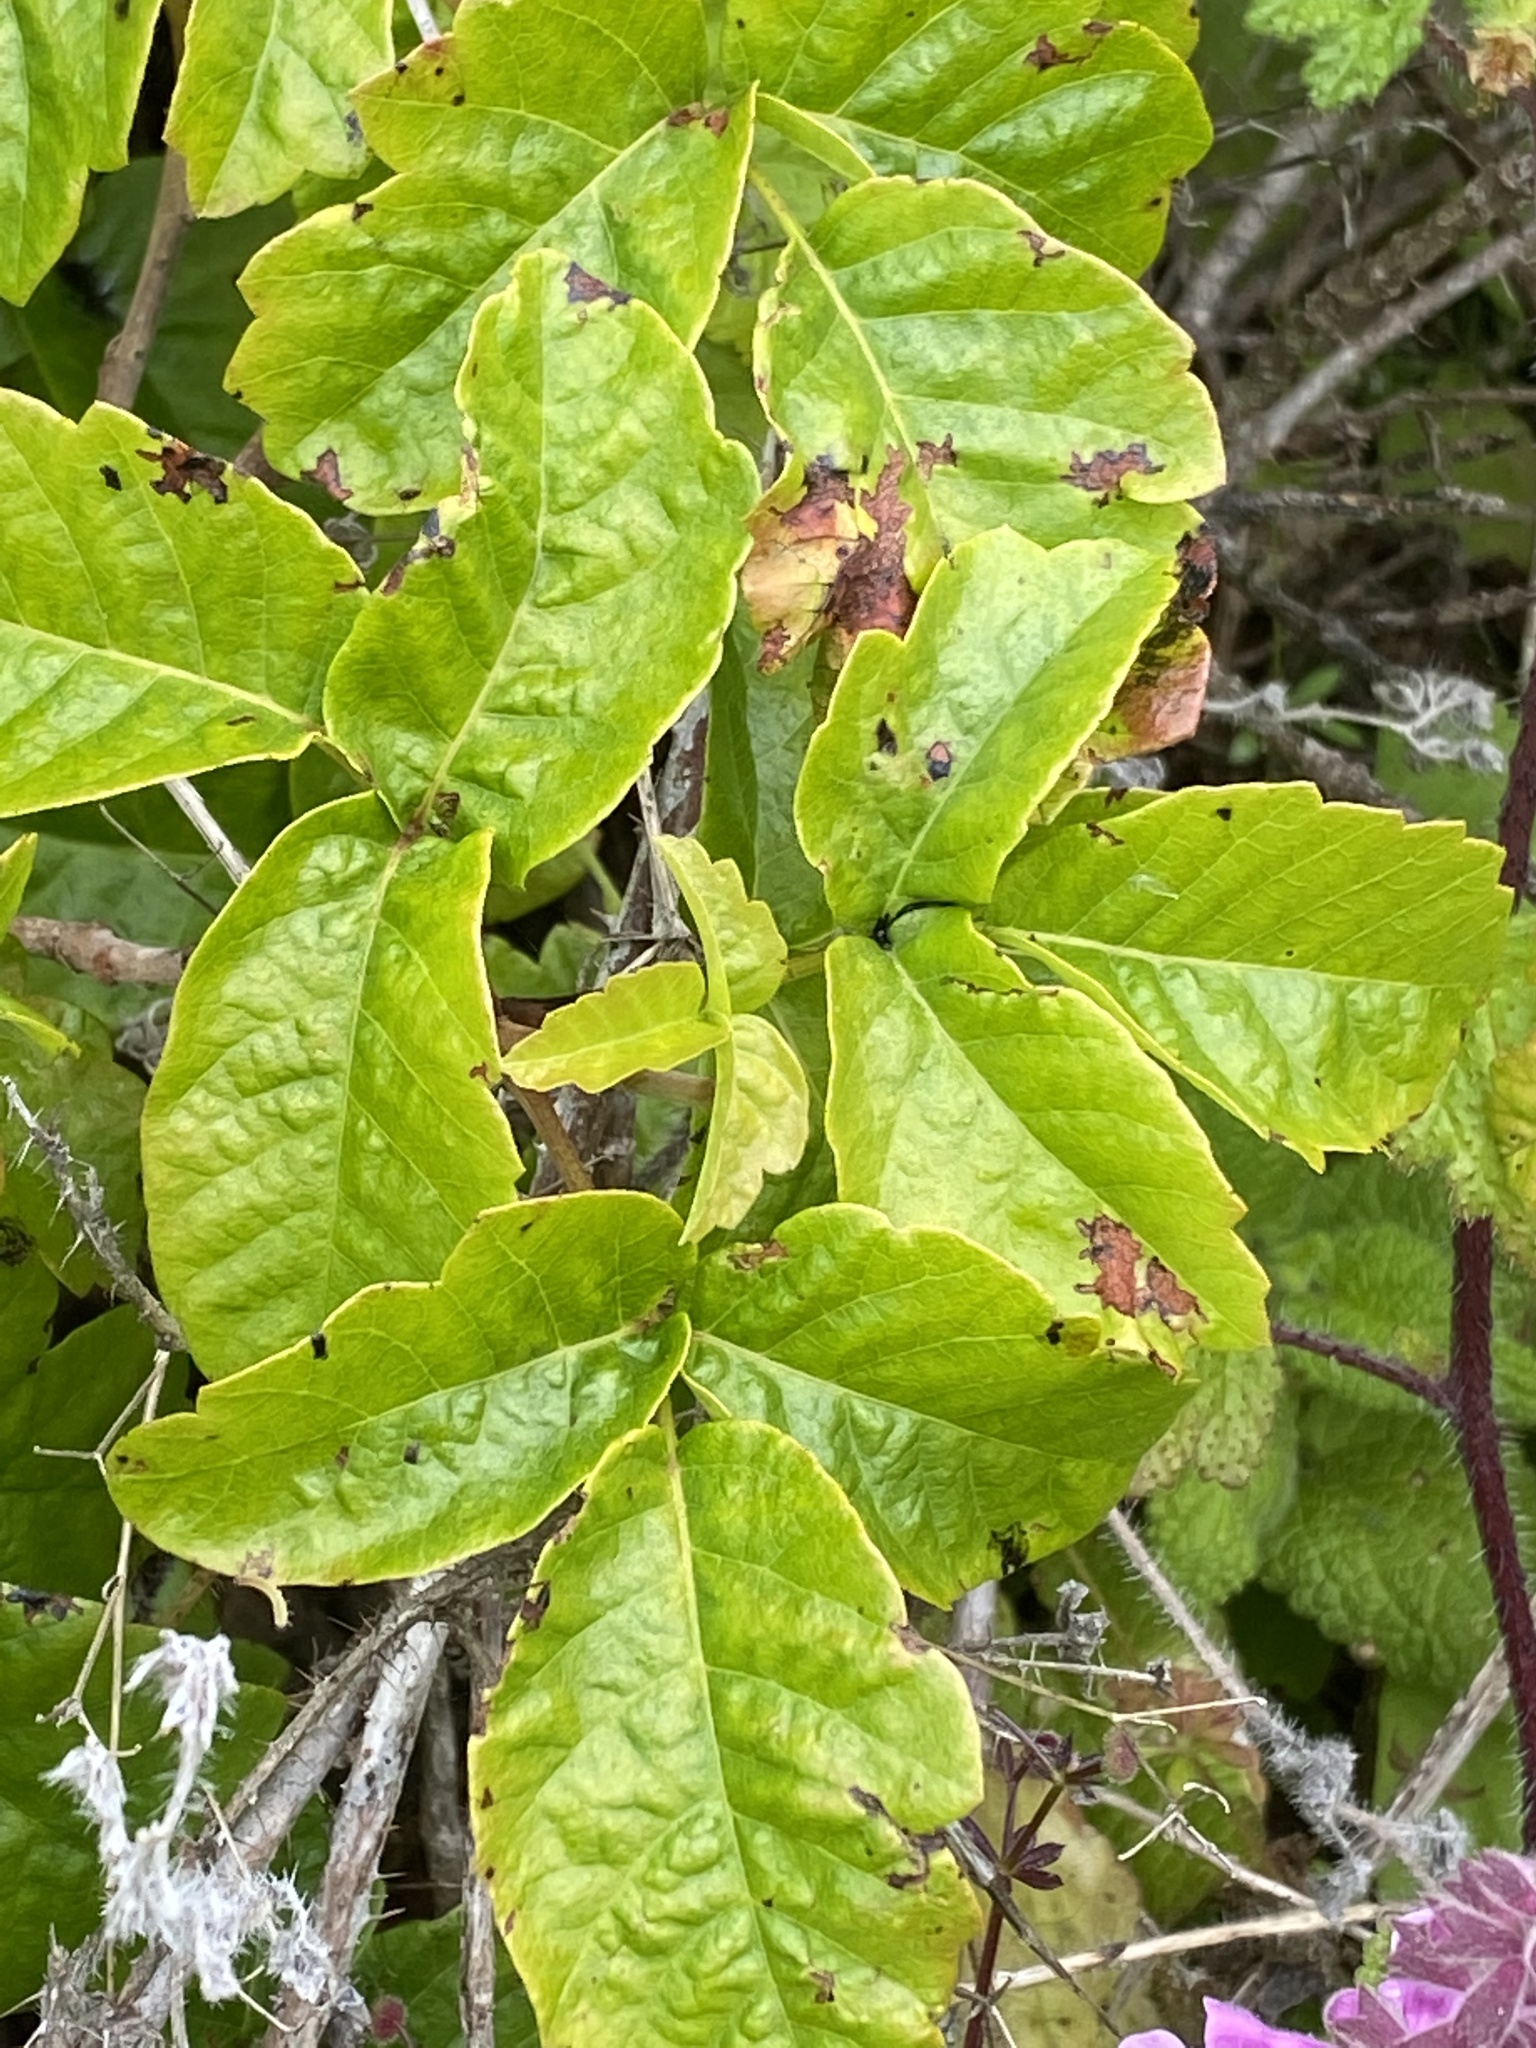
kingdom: Plantae
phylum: Tracheophyta
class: Magnoliopsida
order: Sapindales
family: Anacardiaceae
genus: Toxicodendron
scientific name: Toxicodendron diversilobum
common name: Pacific poison-oak
